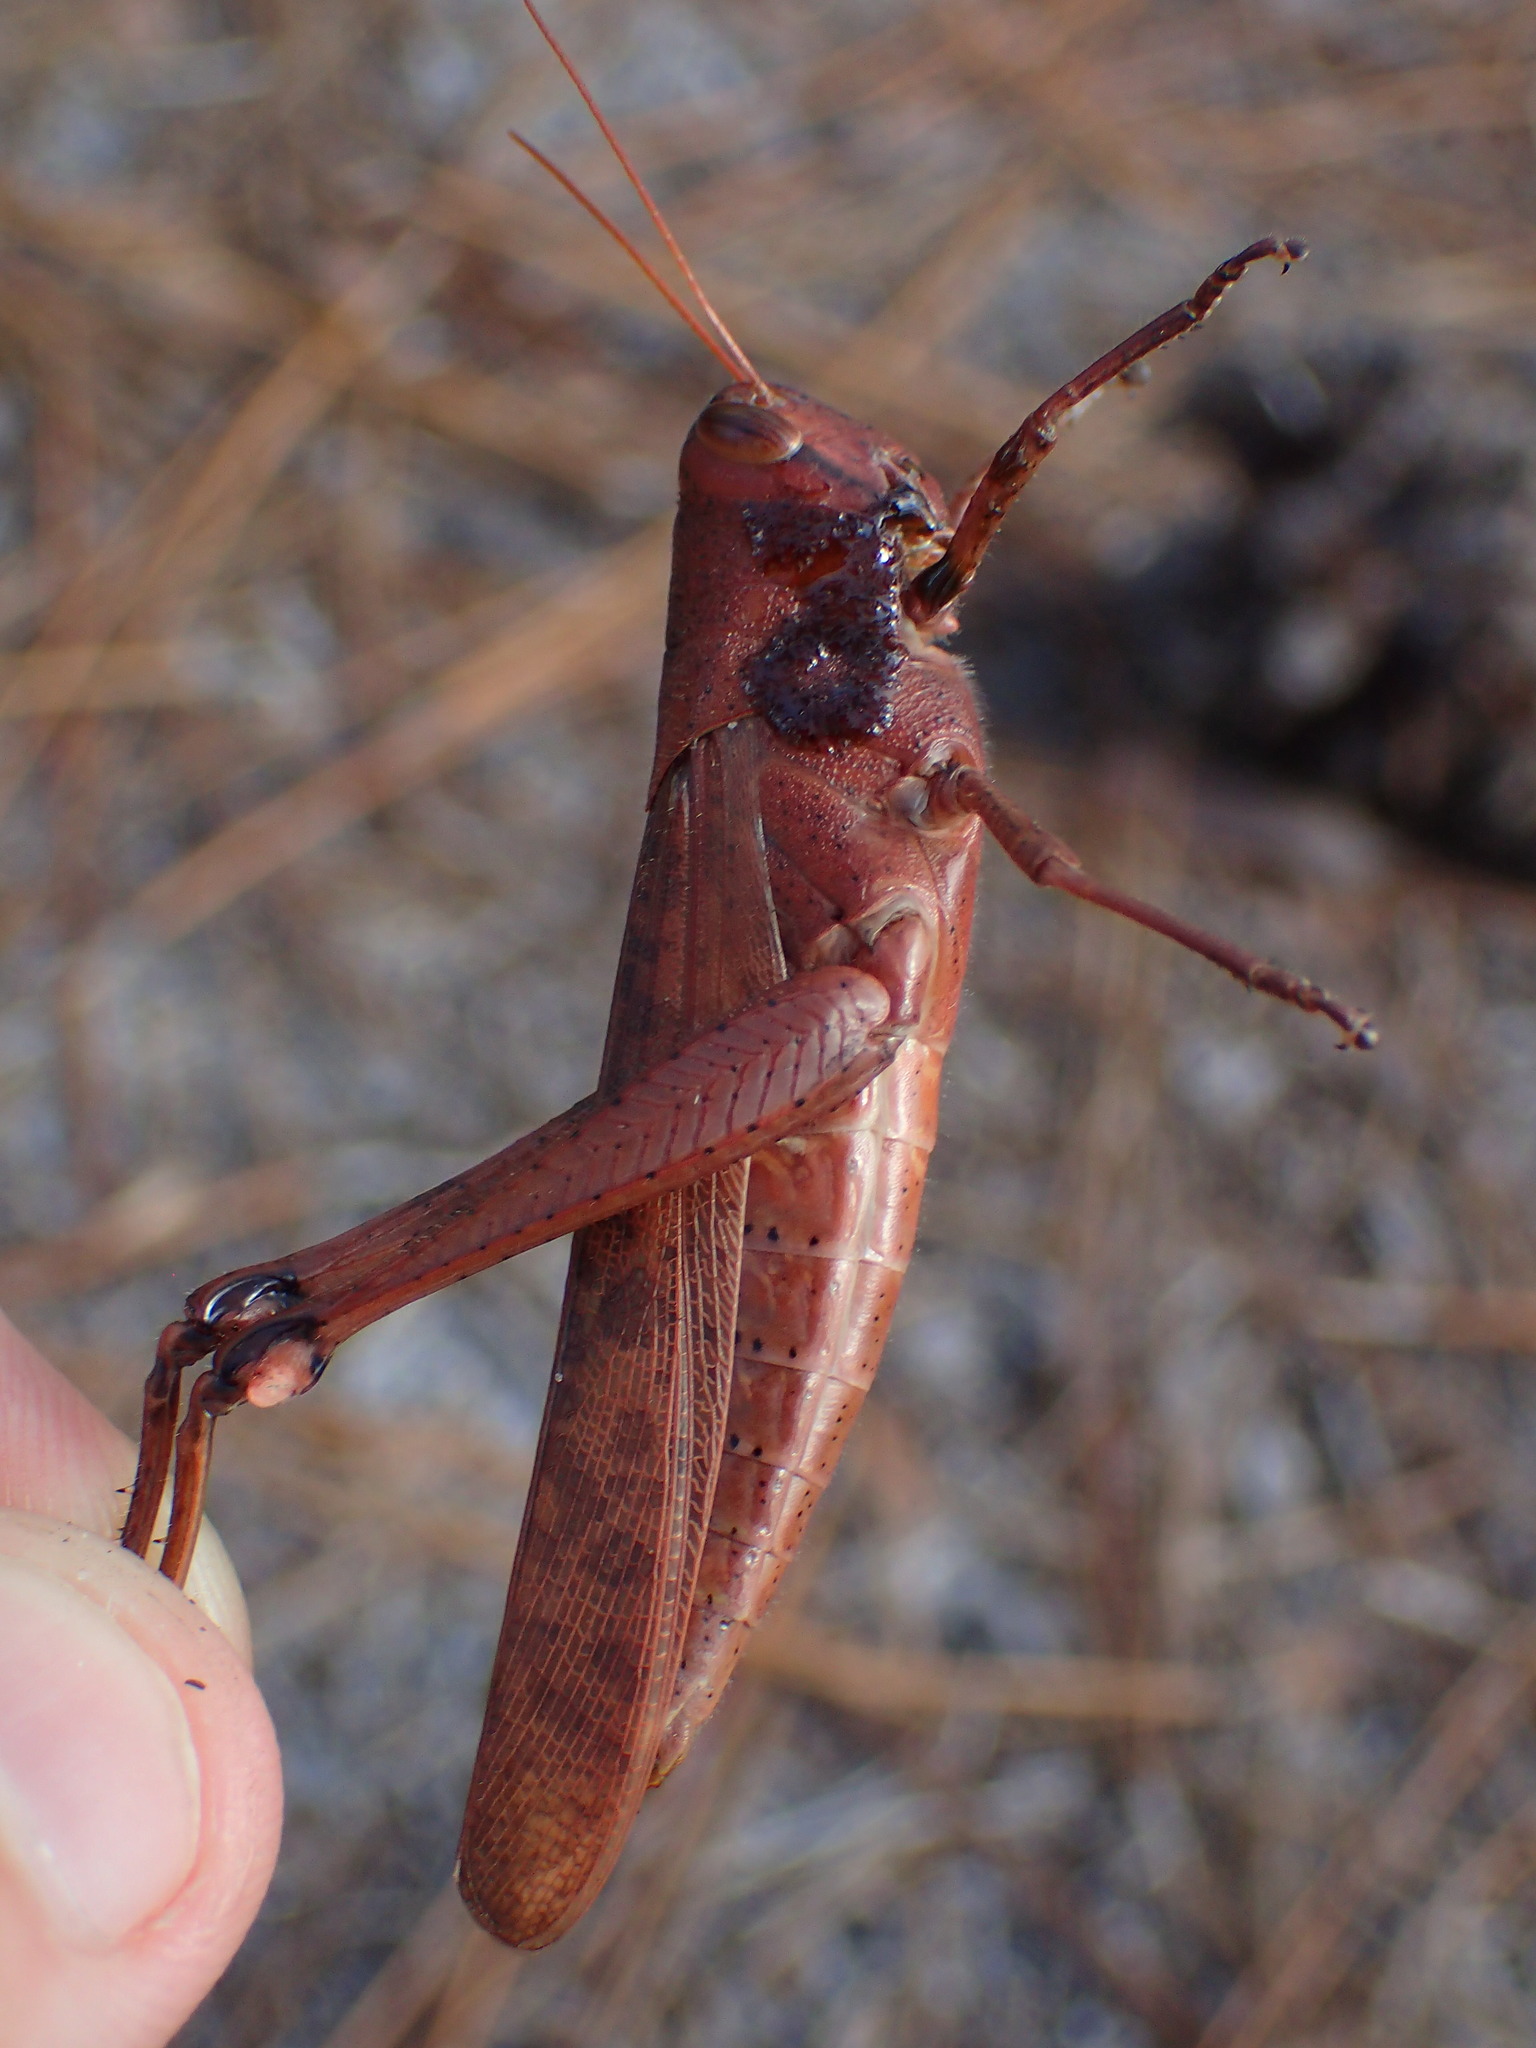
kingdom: Animalia
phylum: Arthropoda
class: Insecta
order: Orthoptera
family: Acrididae
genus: Schistocerca
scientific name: Schistocerca rubiginosa
